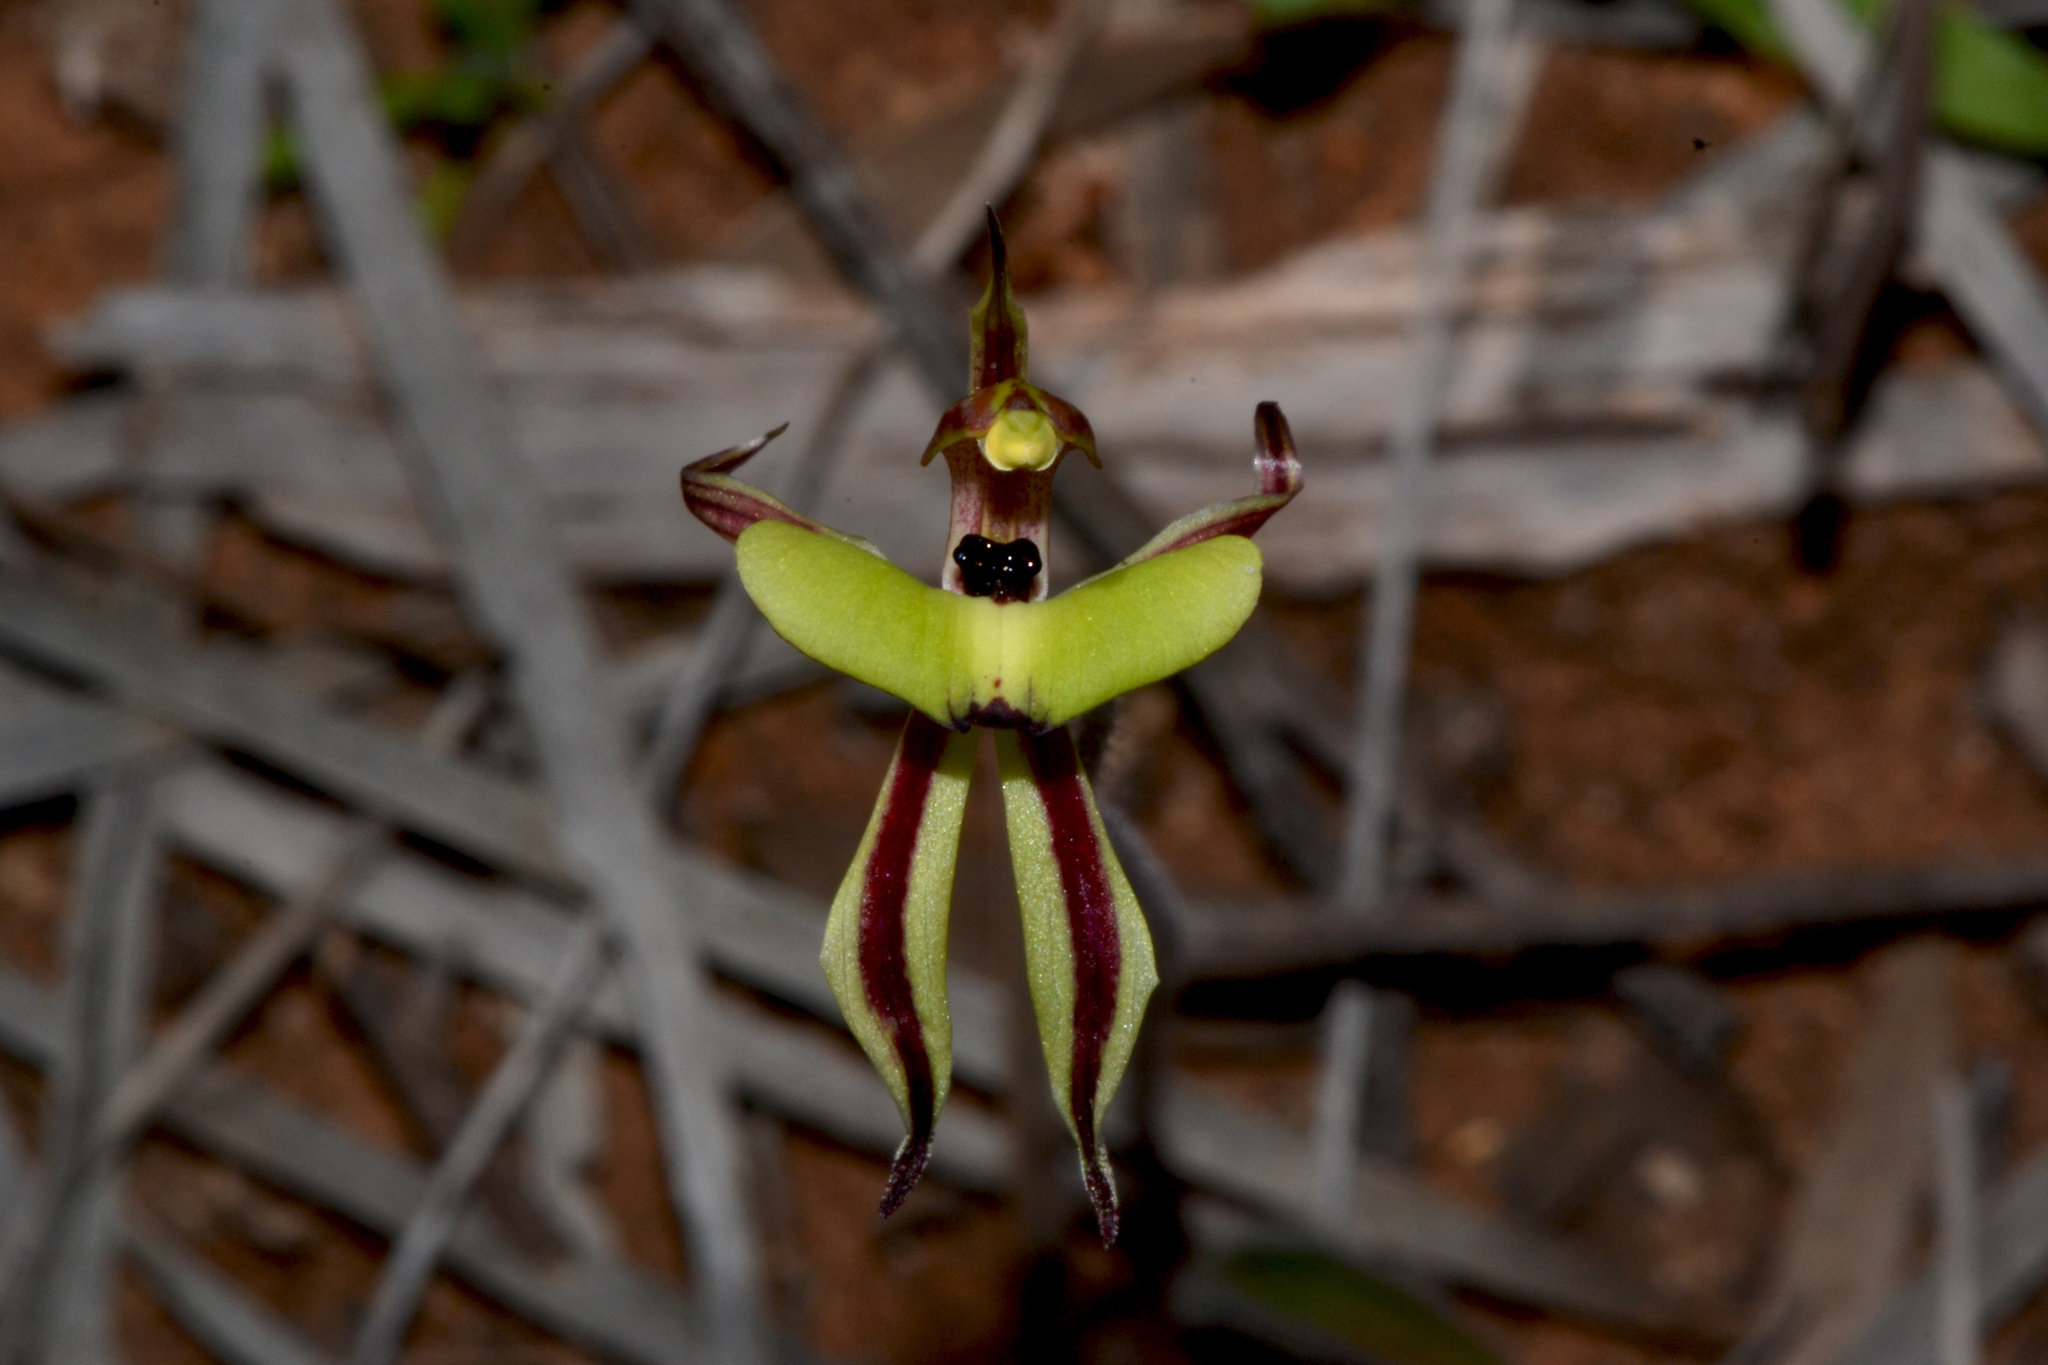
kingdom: Plantae
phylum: Tracheophyta
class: Liliopsida
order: Asparagales
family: Orchidaceae
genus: Caladenia
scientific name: Caladenia roei
